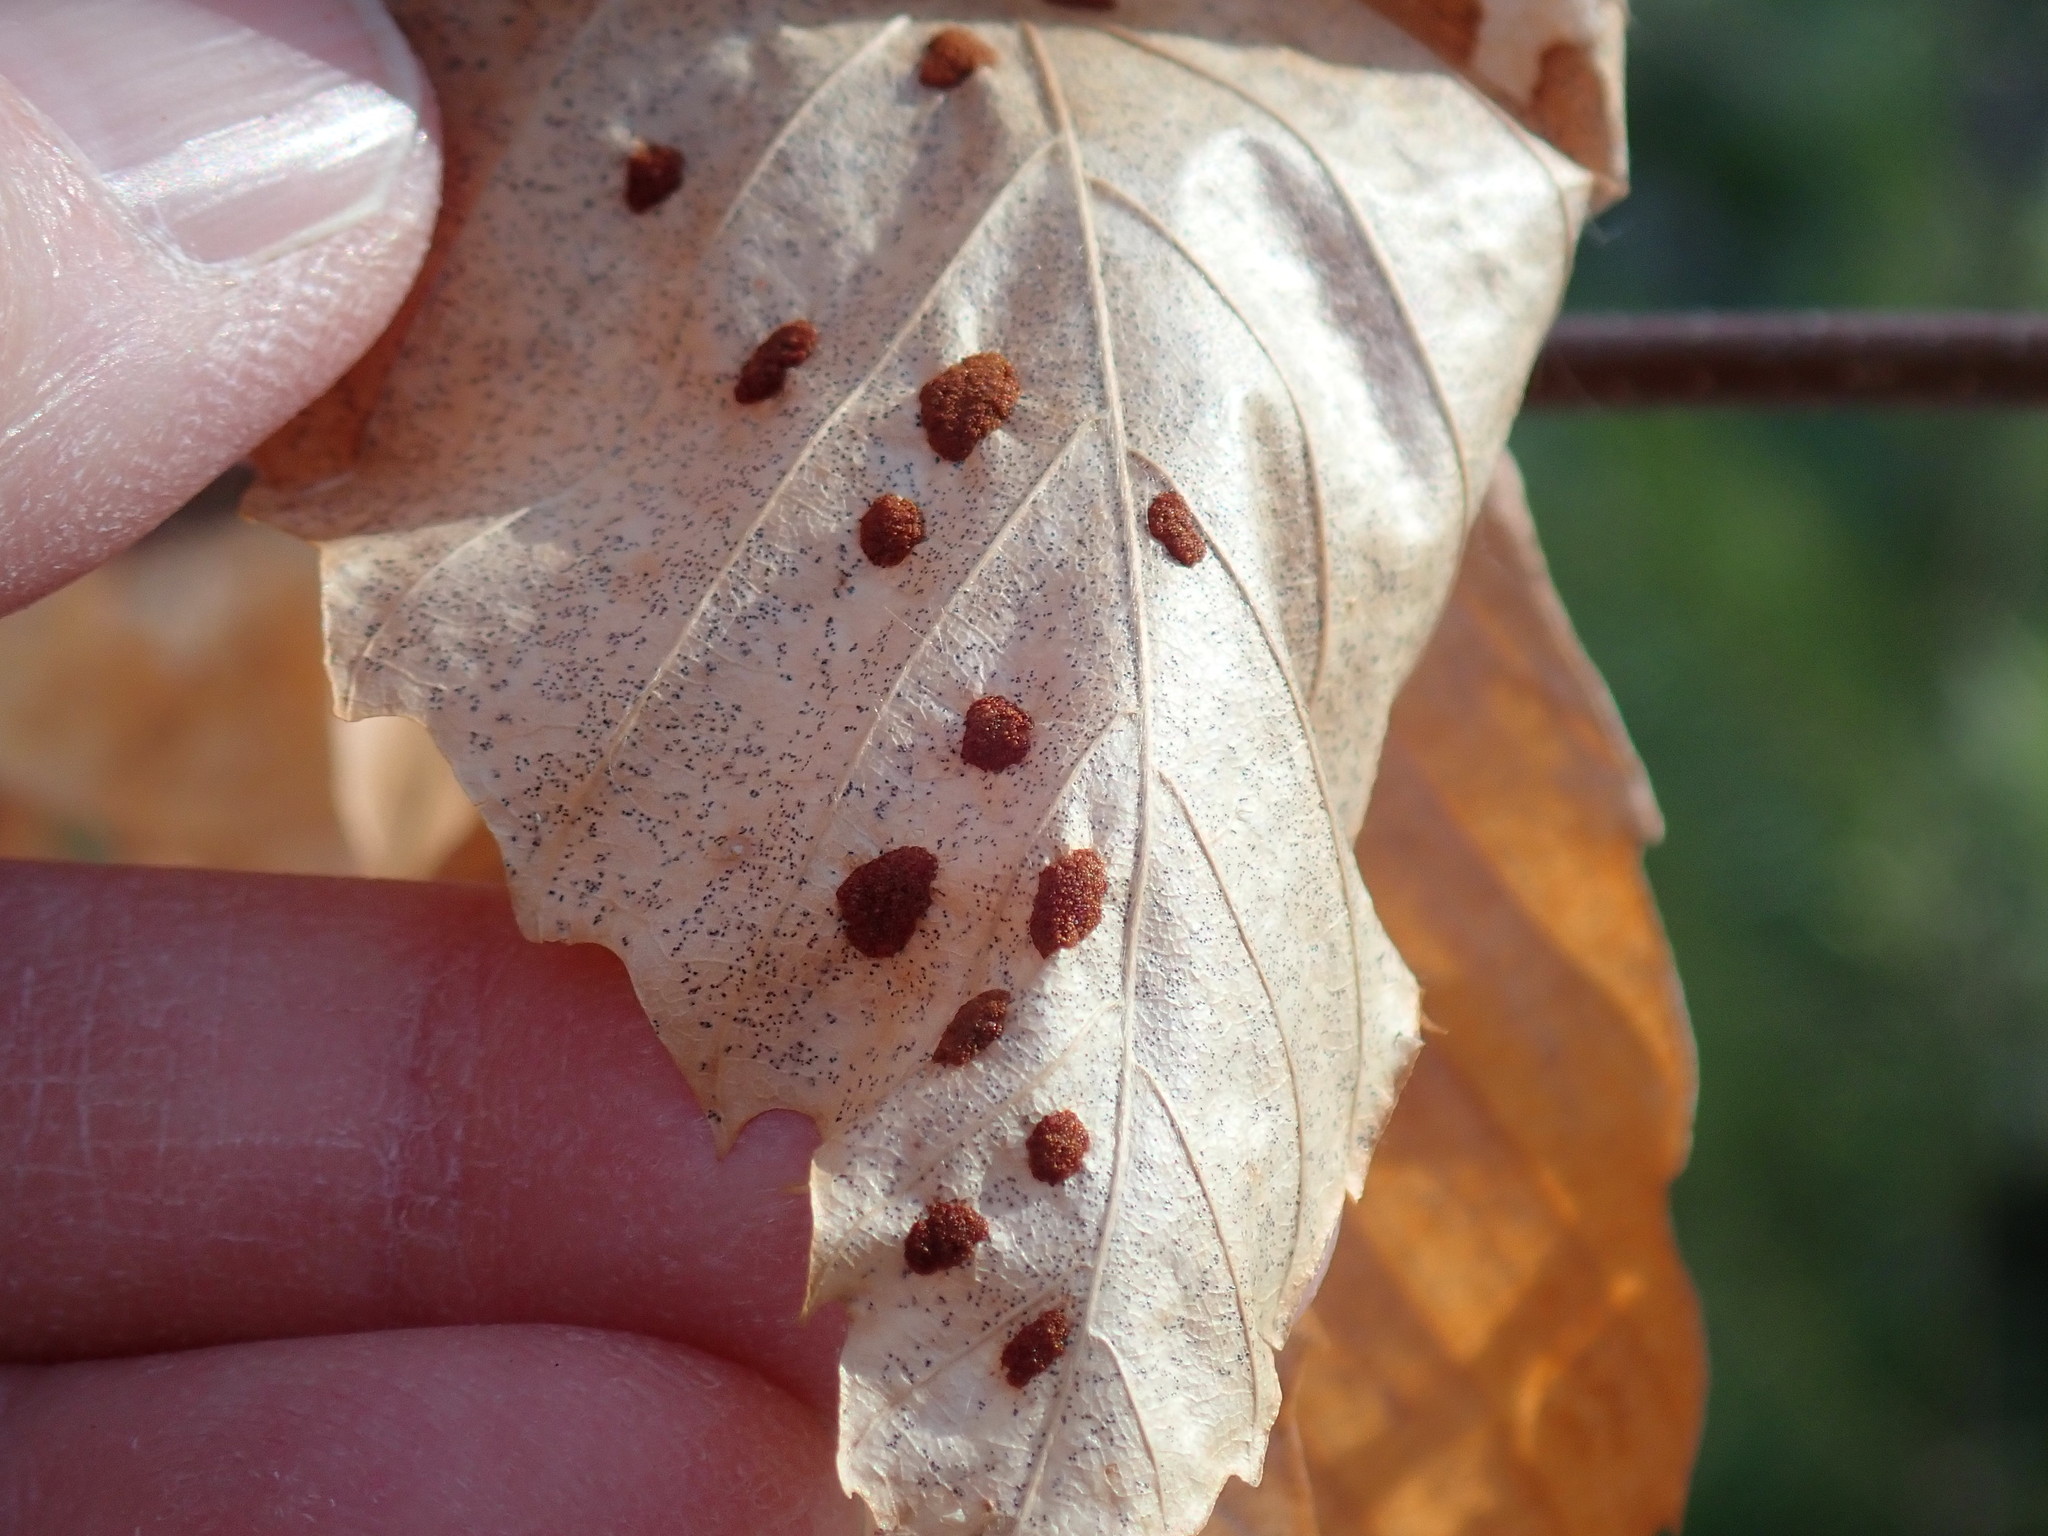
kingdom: Animalia
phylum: Arthropoda
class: Arachnida
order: Trombidiformes
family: Eriophyidae
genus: Acalitus
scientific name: Acalitus
